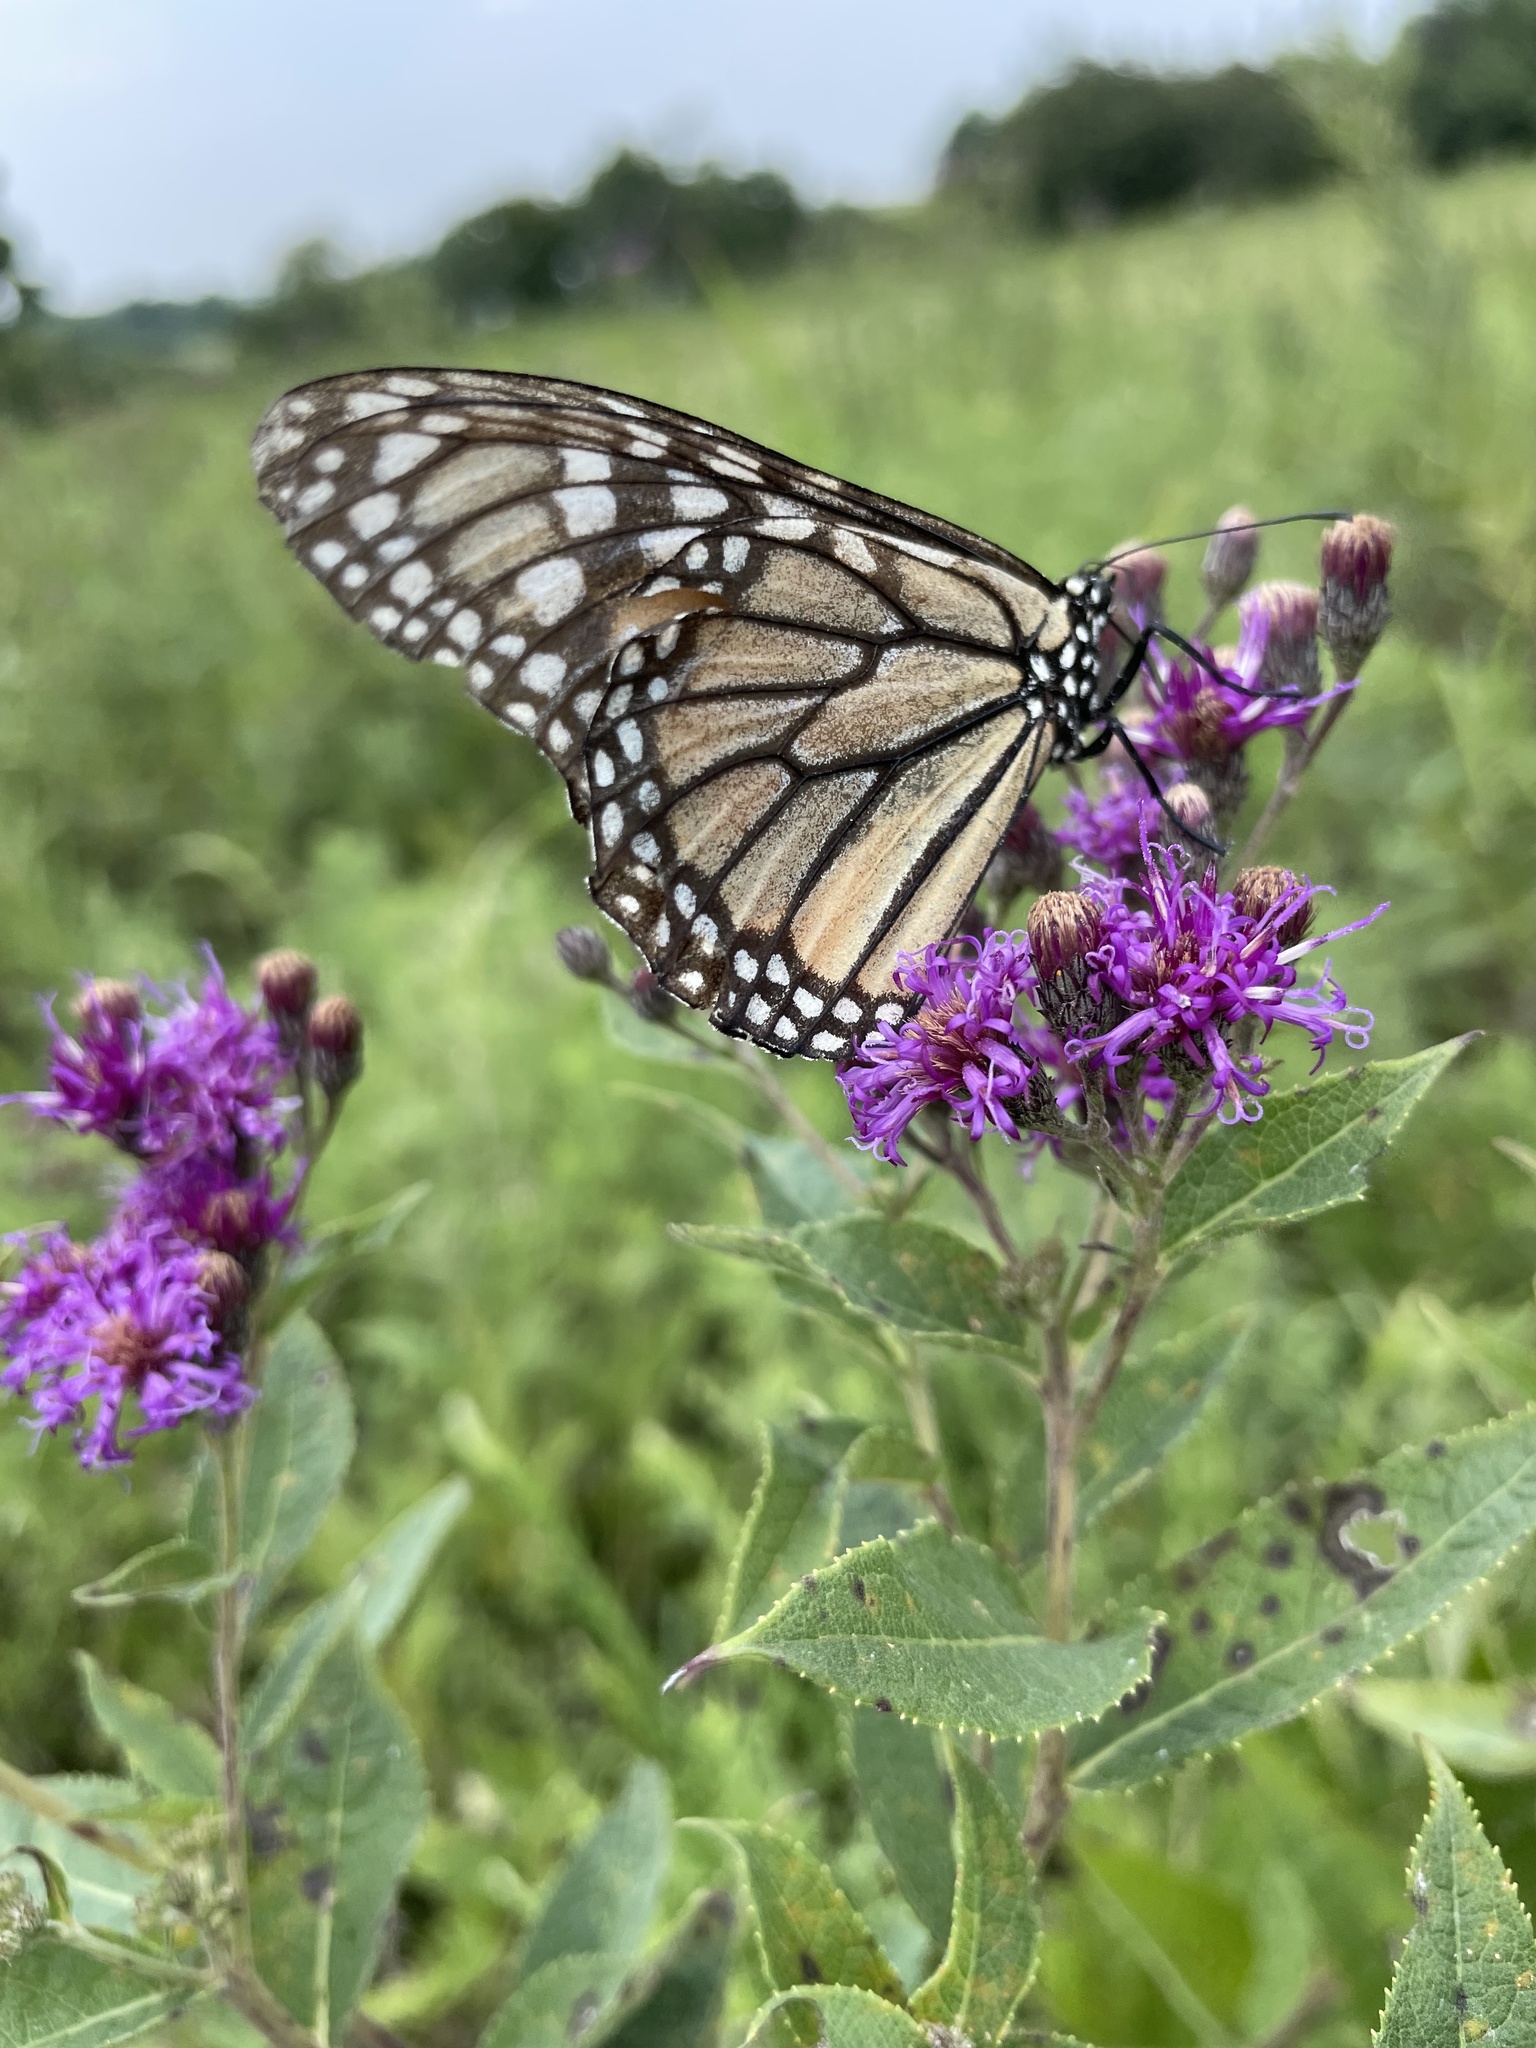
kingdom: Animalia
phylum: Arthropoda
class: Insecta
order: Lepidoptera
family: Nymphalidae
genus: Danaus
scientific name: Danaus plexippus
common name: Monarch
